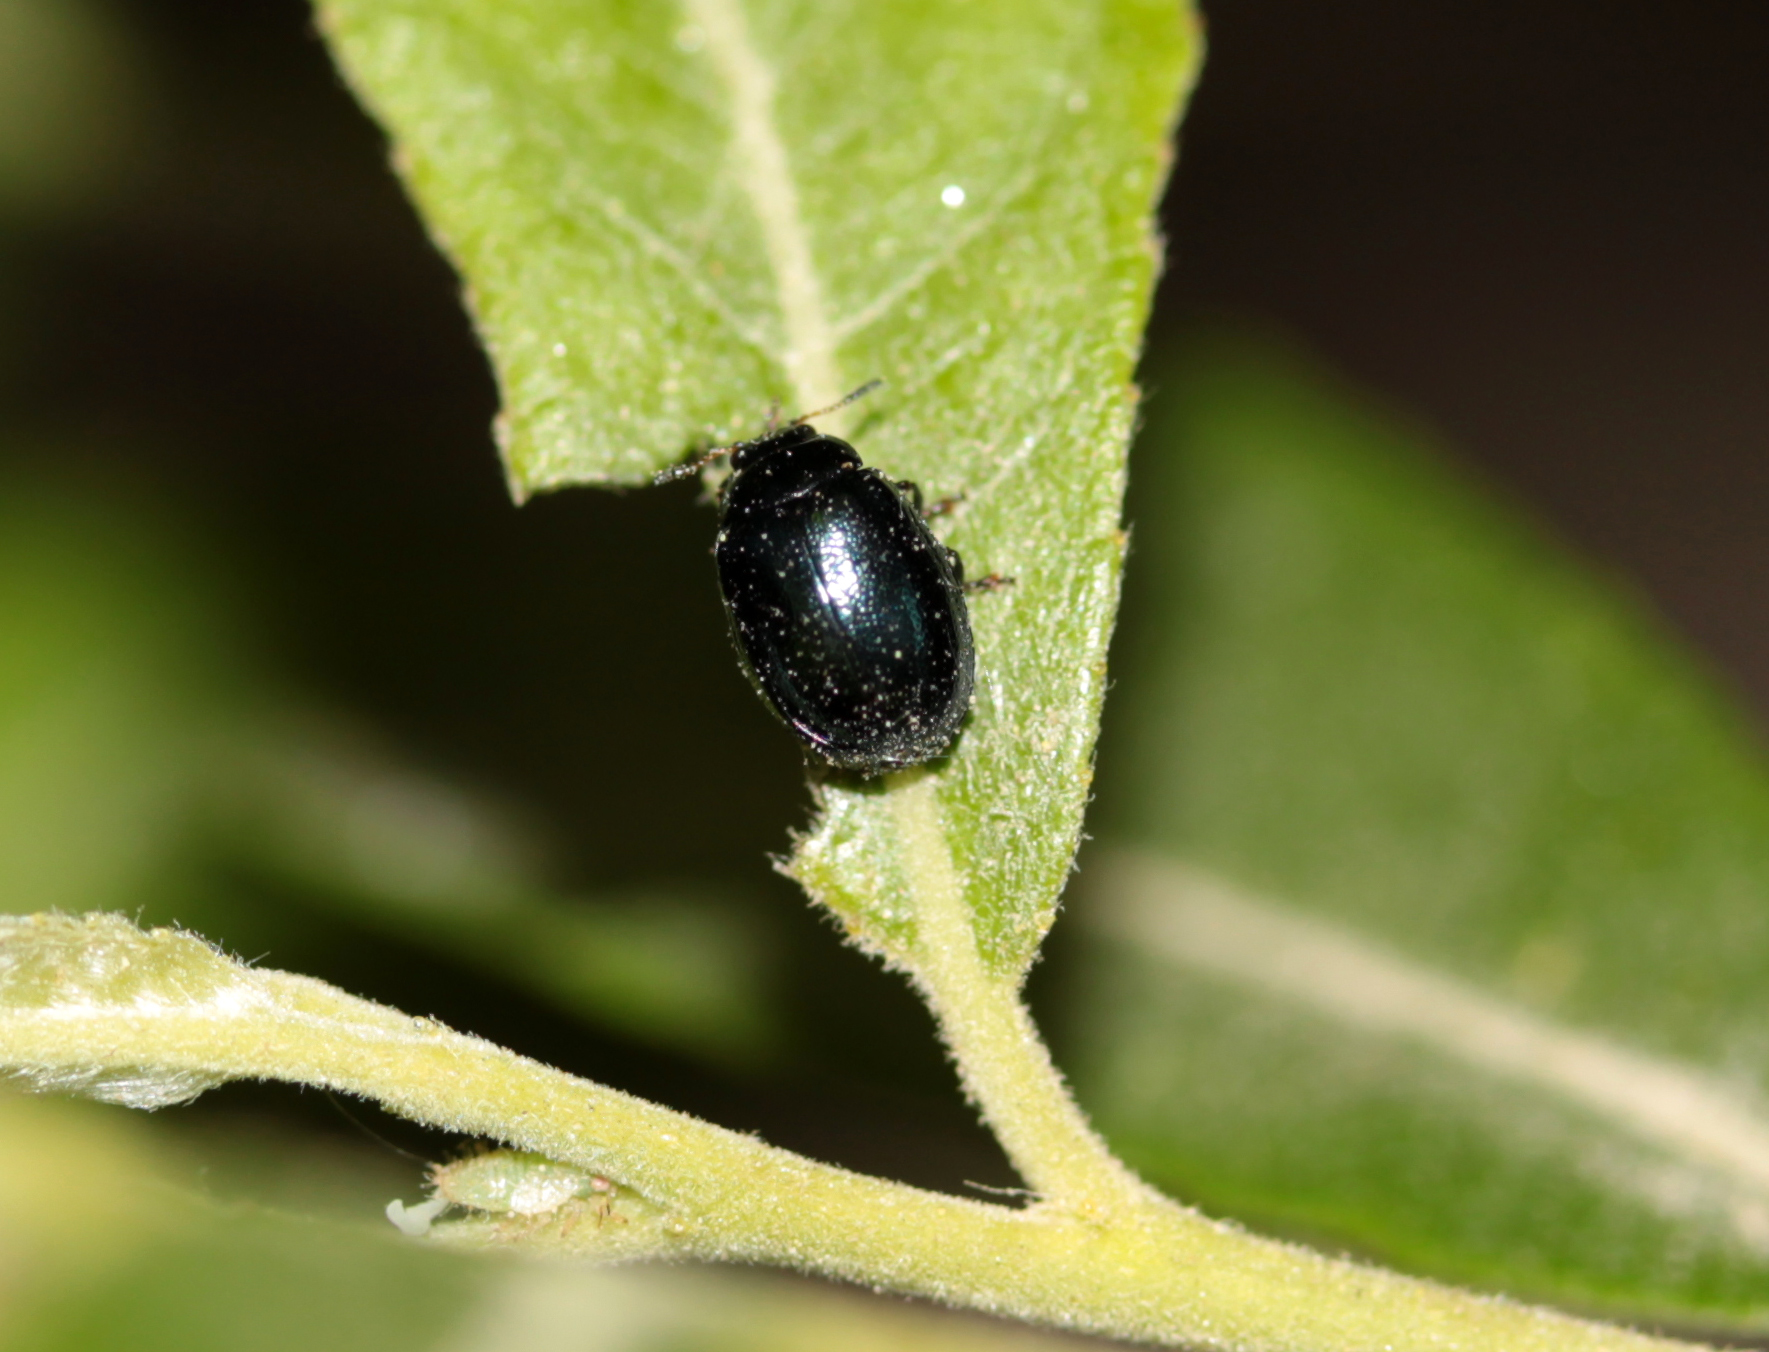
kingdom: Animalia
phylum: Arthropoda
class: Insecta
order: Coleoptera
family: Chrysomelidae
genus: Plagiodera
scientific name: Plagiodera versicolora
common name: Imported willow leaf beetle
